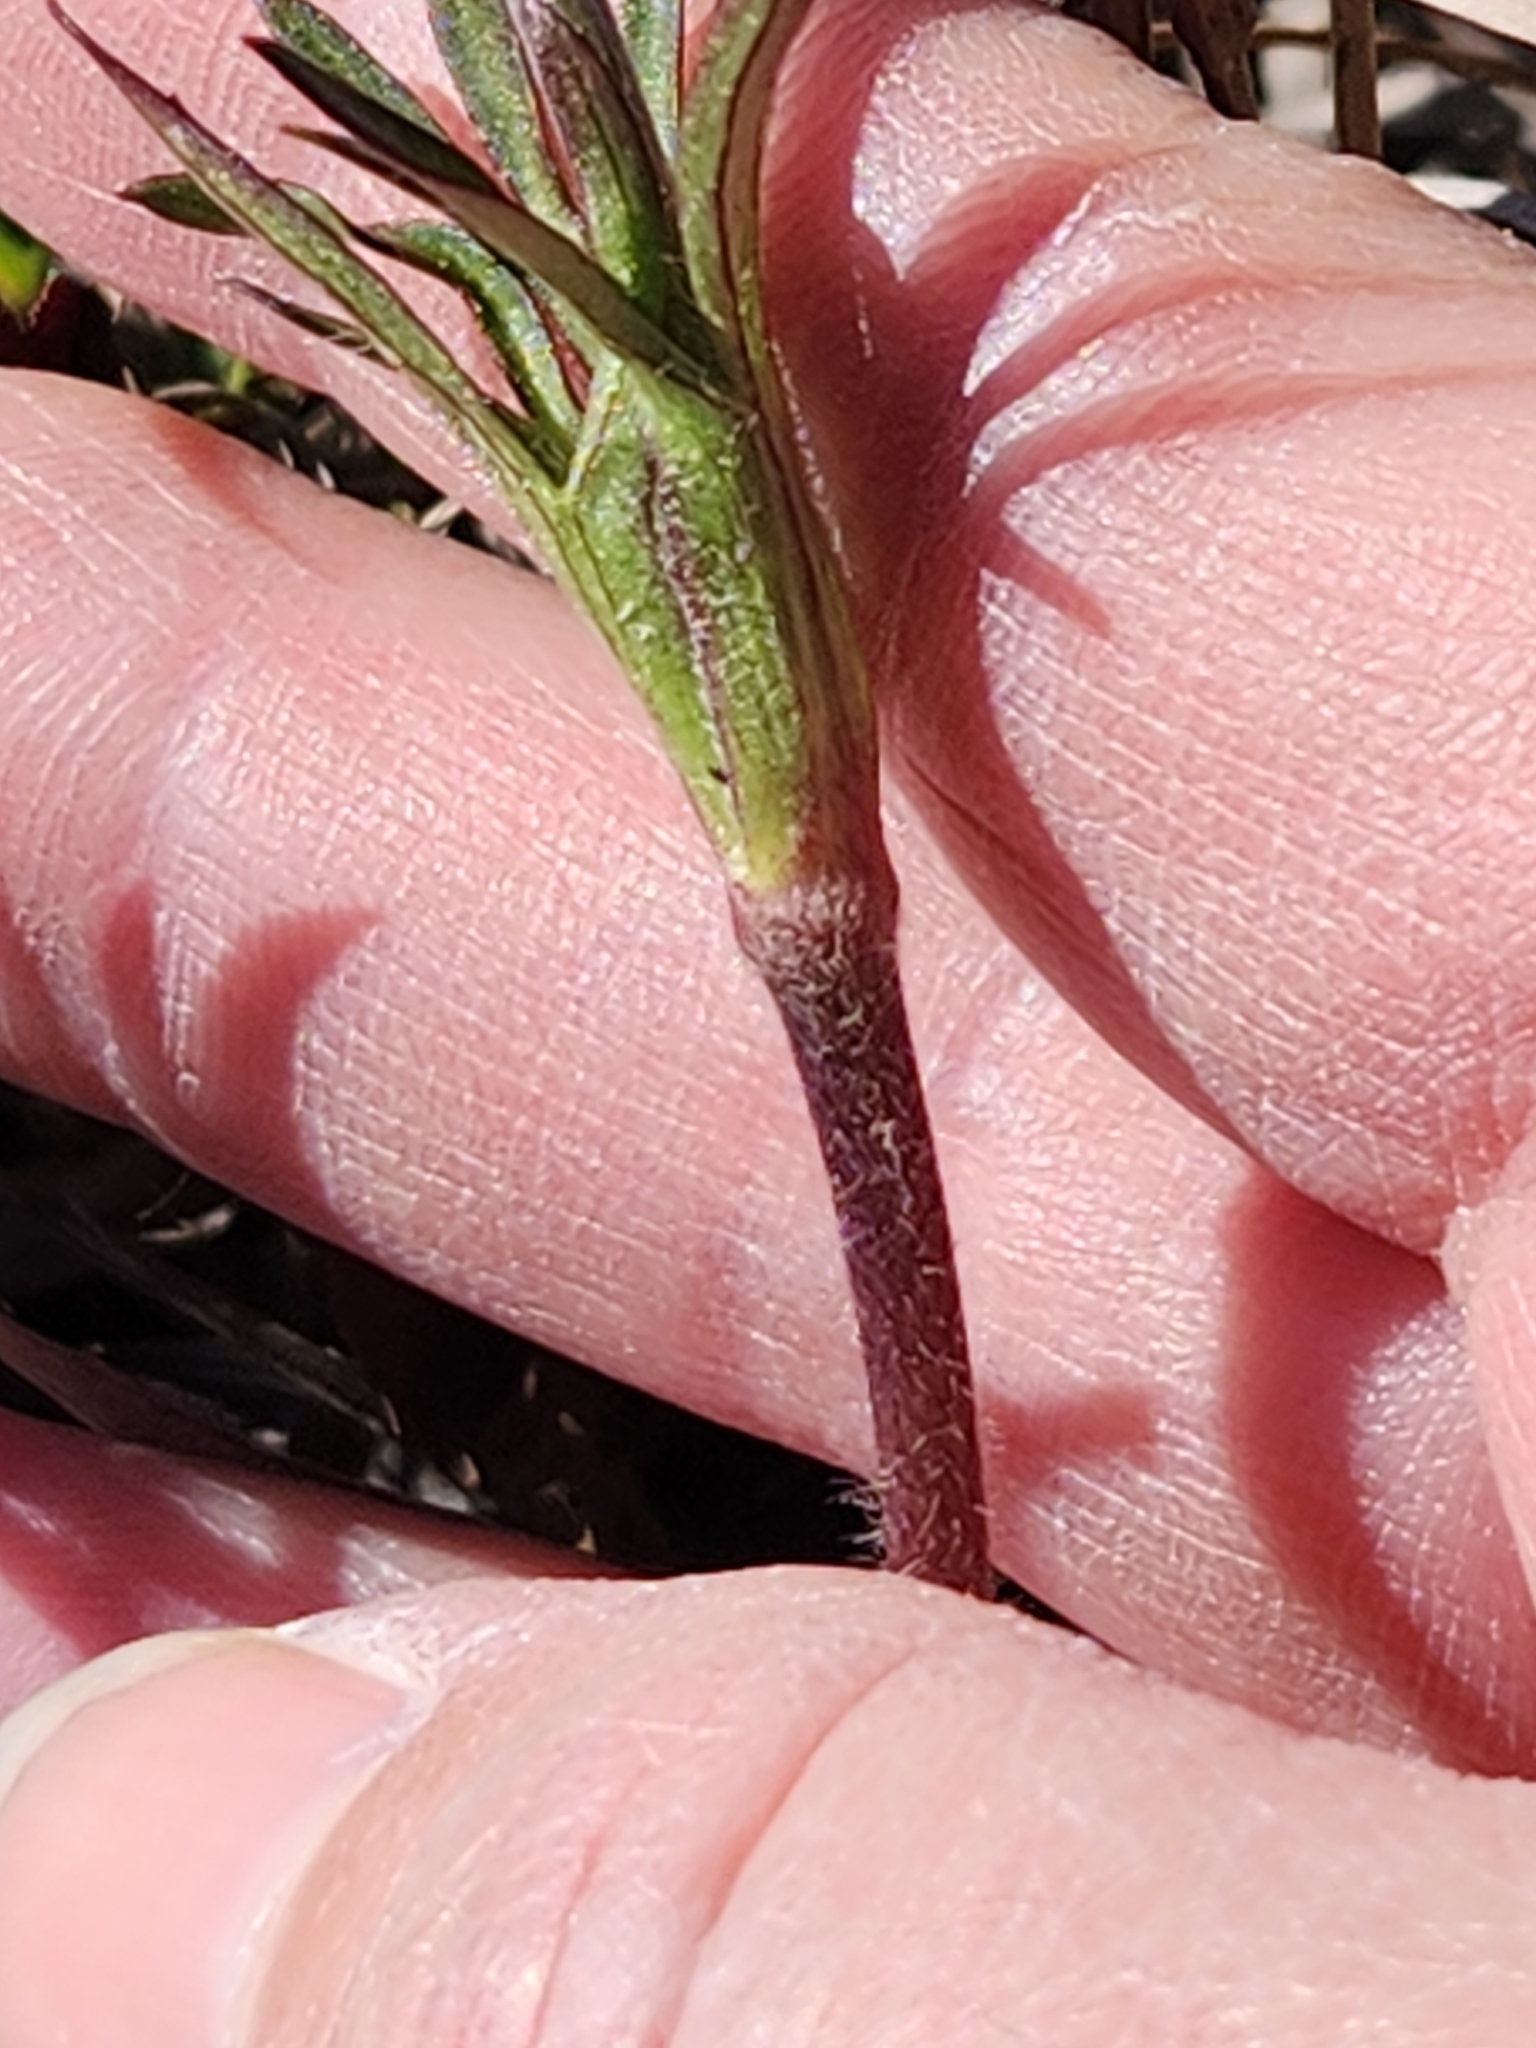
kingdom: Plantae
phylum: Tracheophyta
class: Magnoliopsida
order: Ranunculales
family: Ranunculaceae
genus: Anemone
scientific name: Anemone berlandieri
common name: Ten-petal anemone
